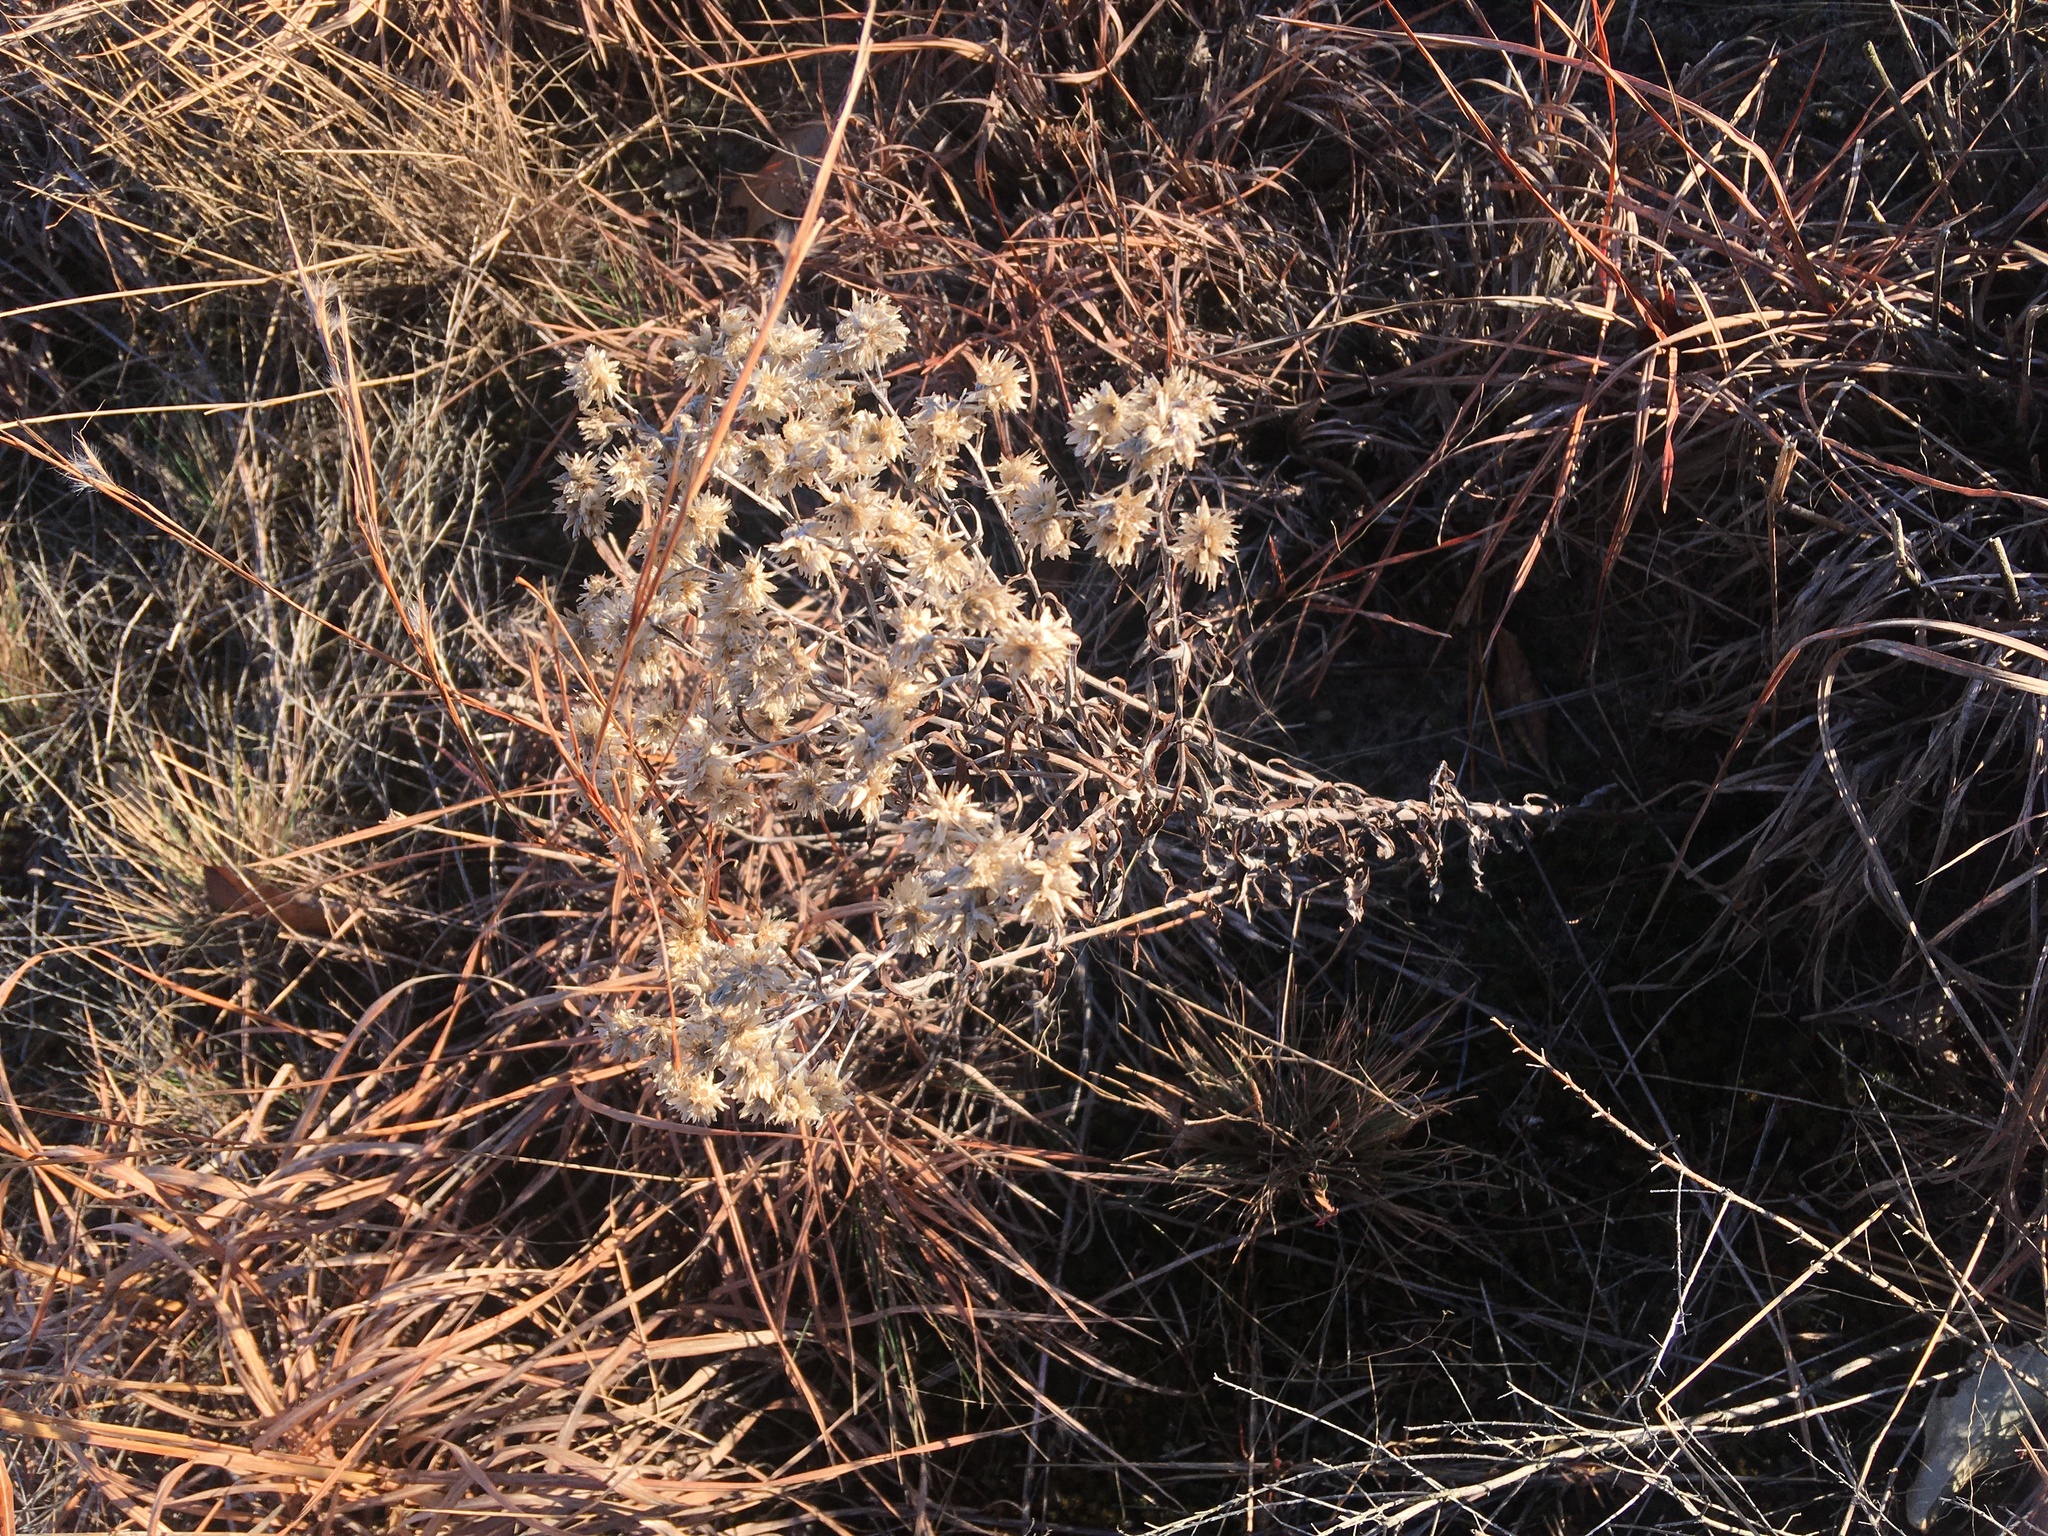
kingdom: Plantae
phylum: Tracheophyta
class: Magnoliopsida
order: Asterales
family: Asteraceae
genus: Pseudognaphalium
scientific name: Pseudognaphalium obtusifolium
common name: Eastern rabbit-tobacco
